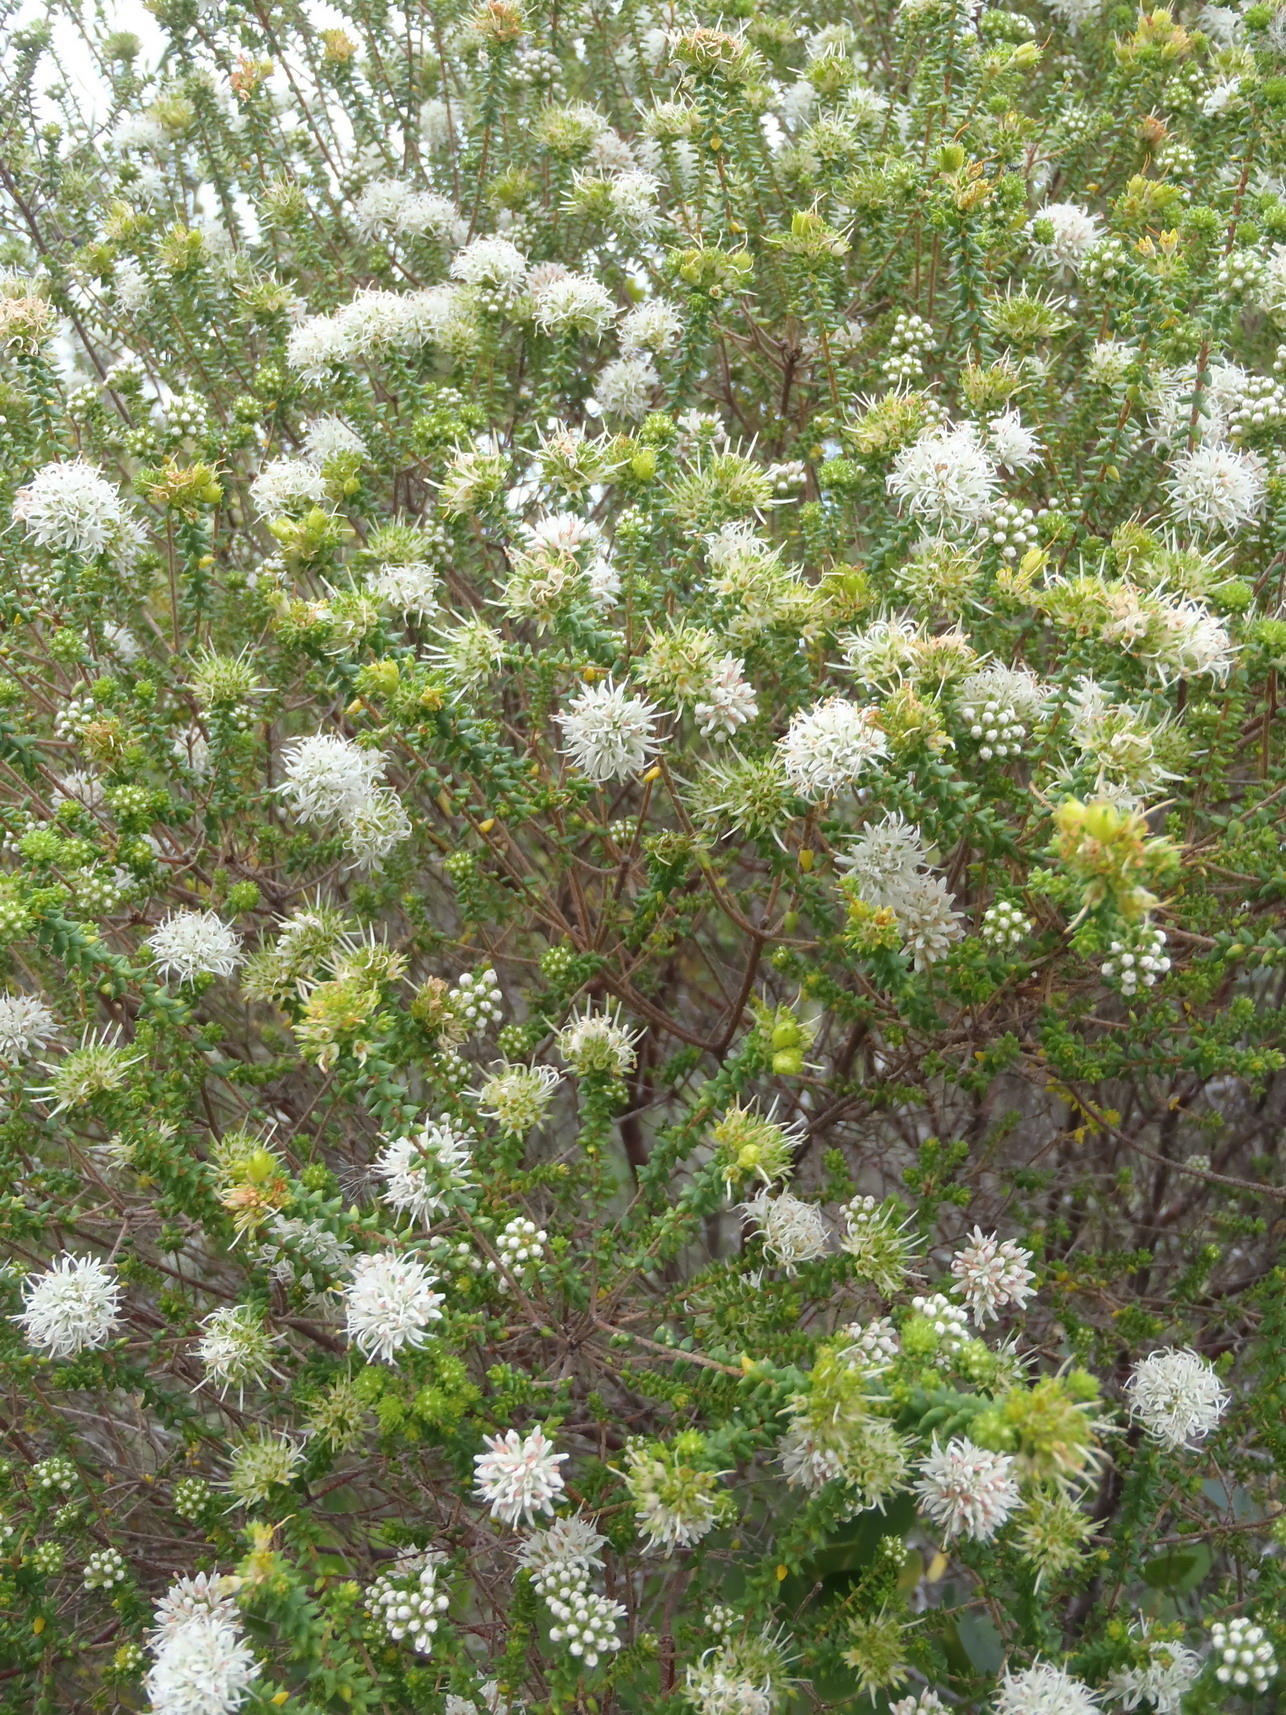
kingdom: Plantae
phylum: Tracheophyta
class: Magnoliopsida
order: Sapindales
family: Rutaceae
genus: Agathosma
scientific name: Agathosma apiculata
